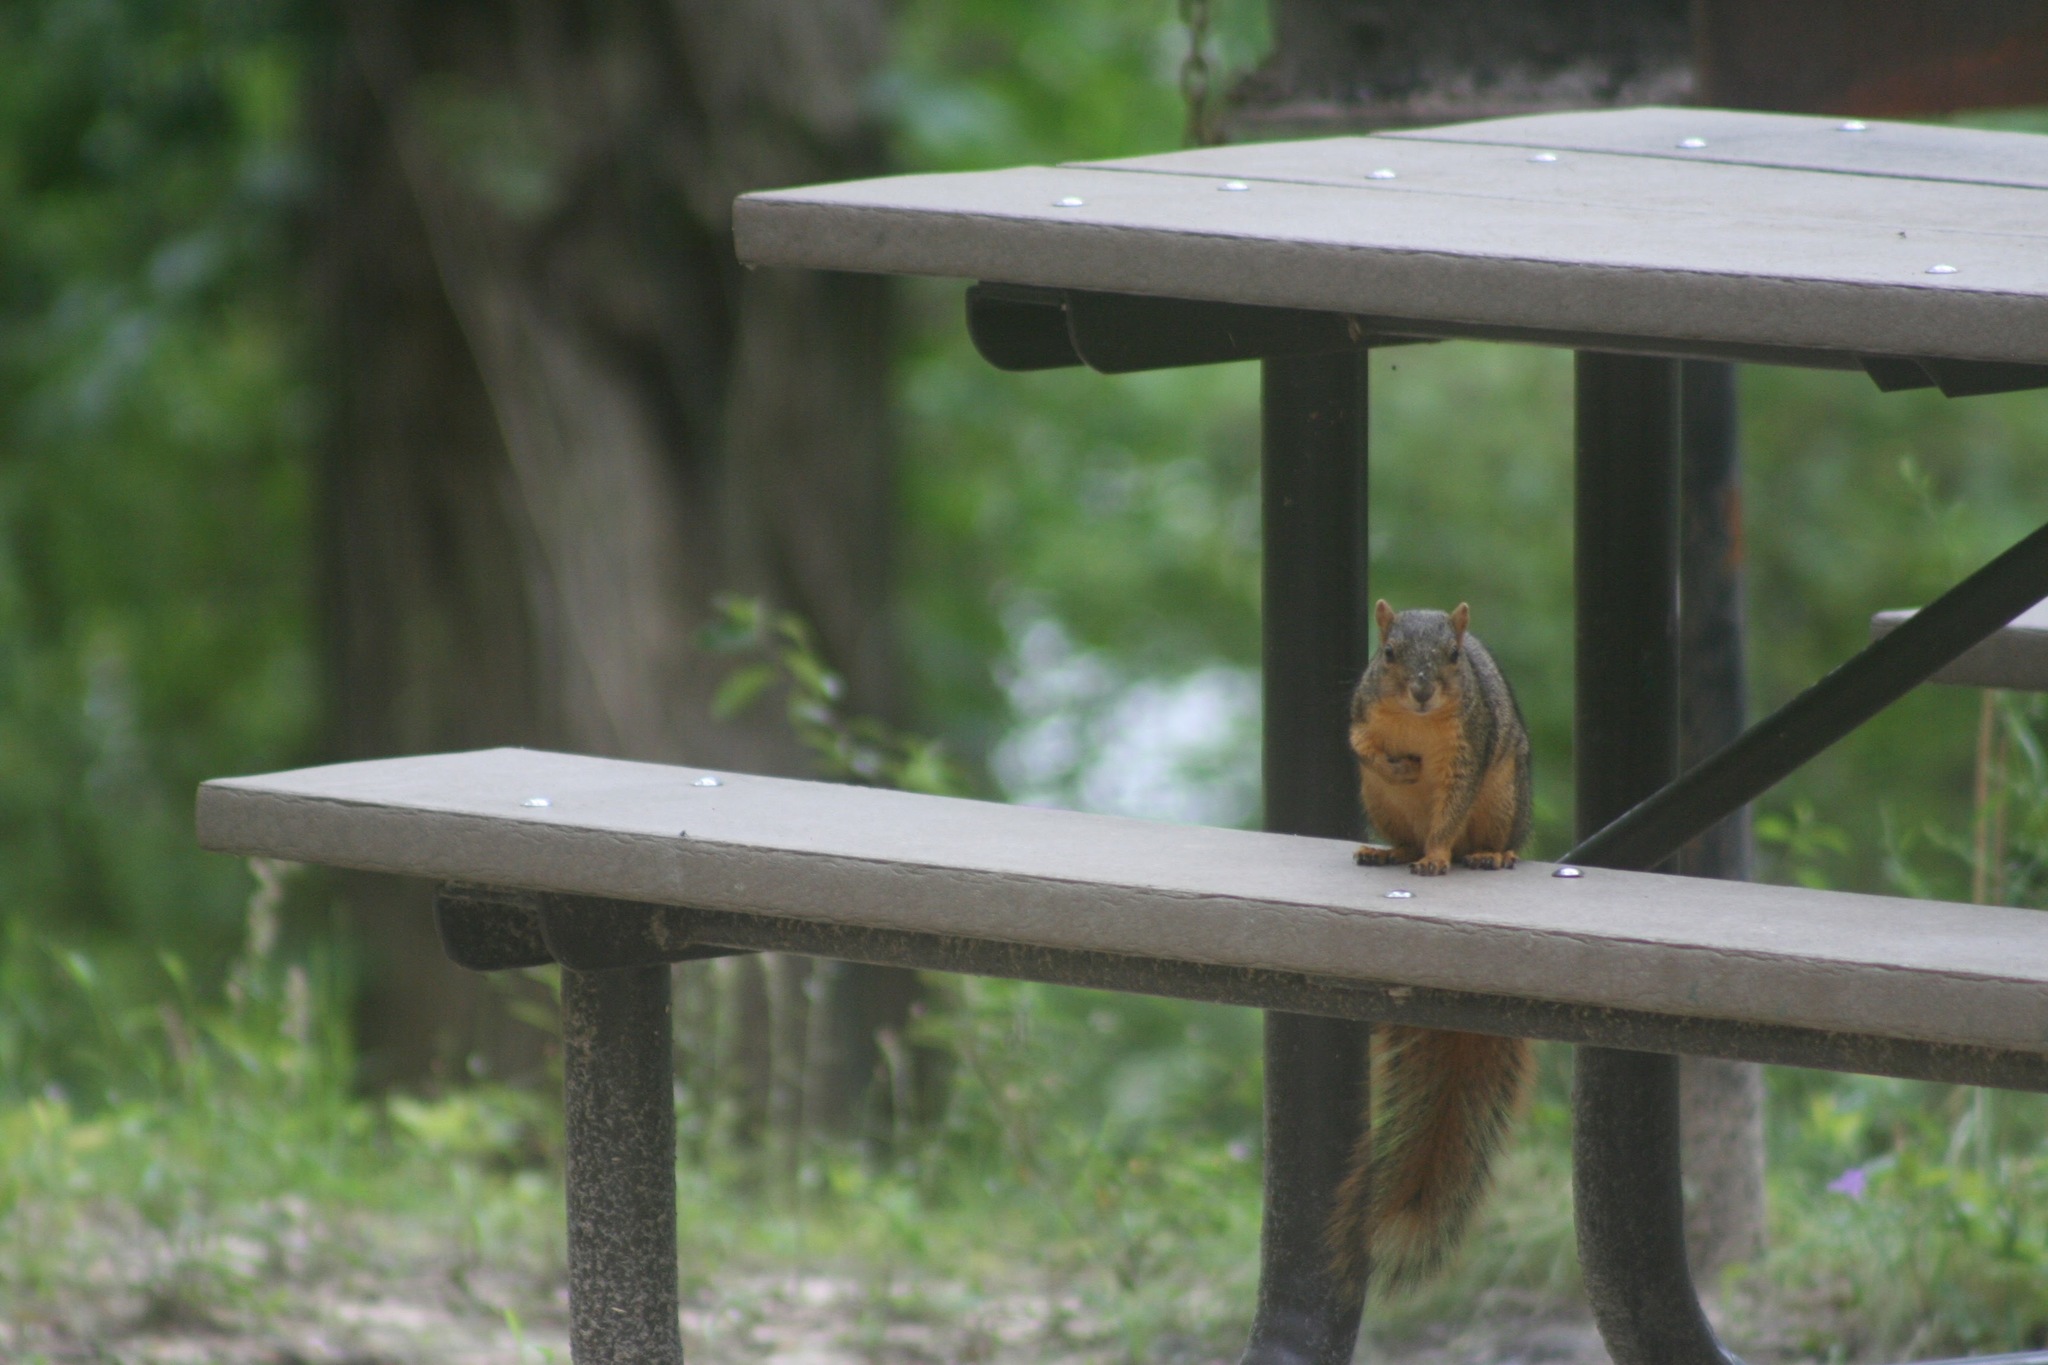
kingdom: Animalia
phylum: Chordata
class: Mammalia
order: Rodentia
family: Sciuridae
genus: Sciurus
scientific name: Sciurus niger
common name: Fox squirrel
